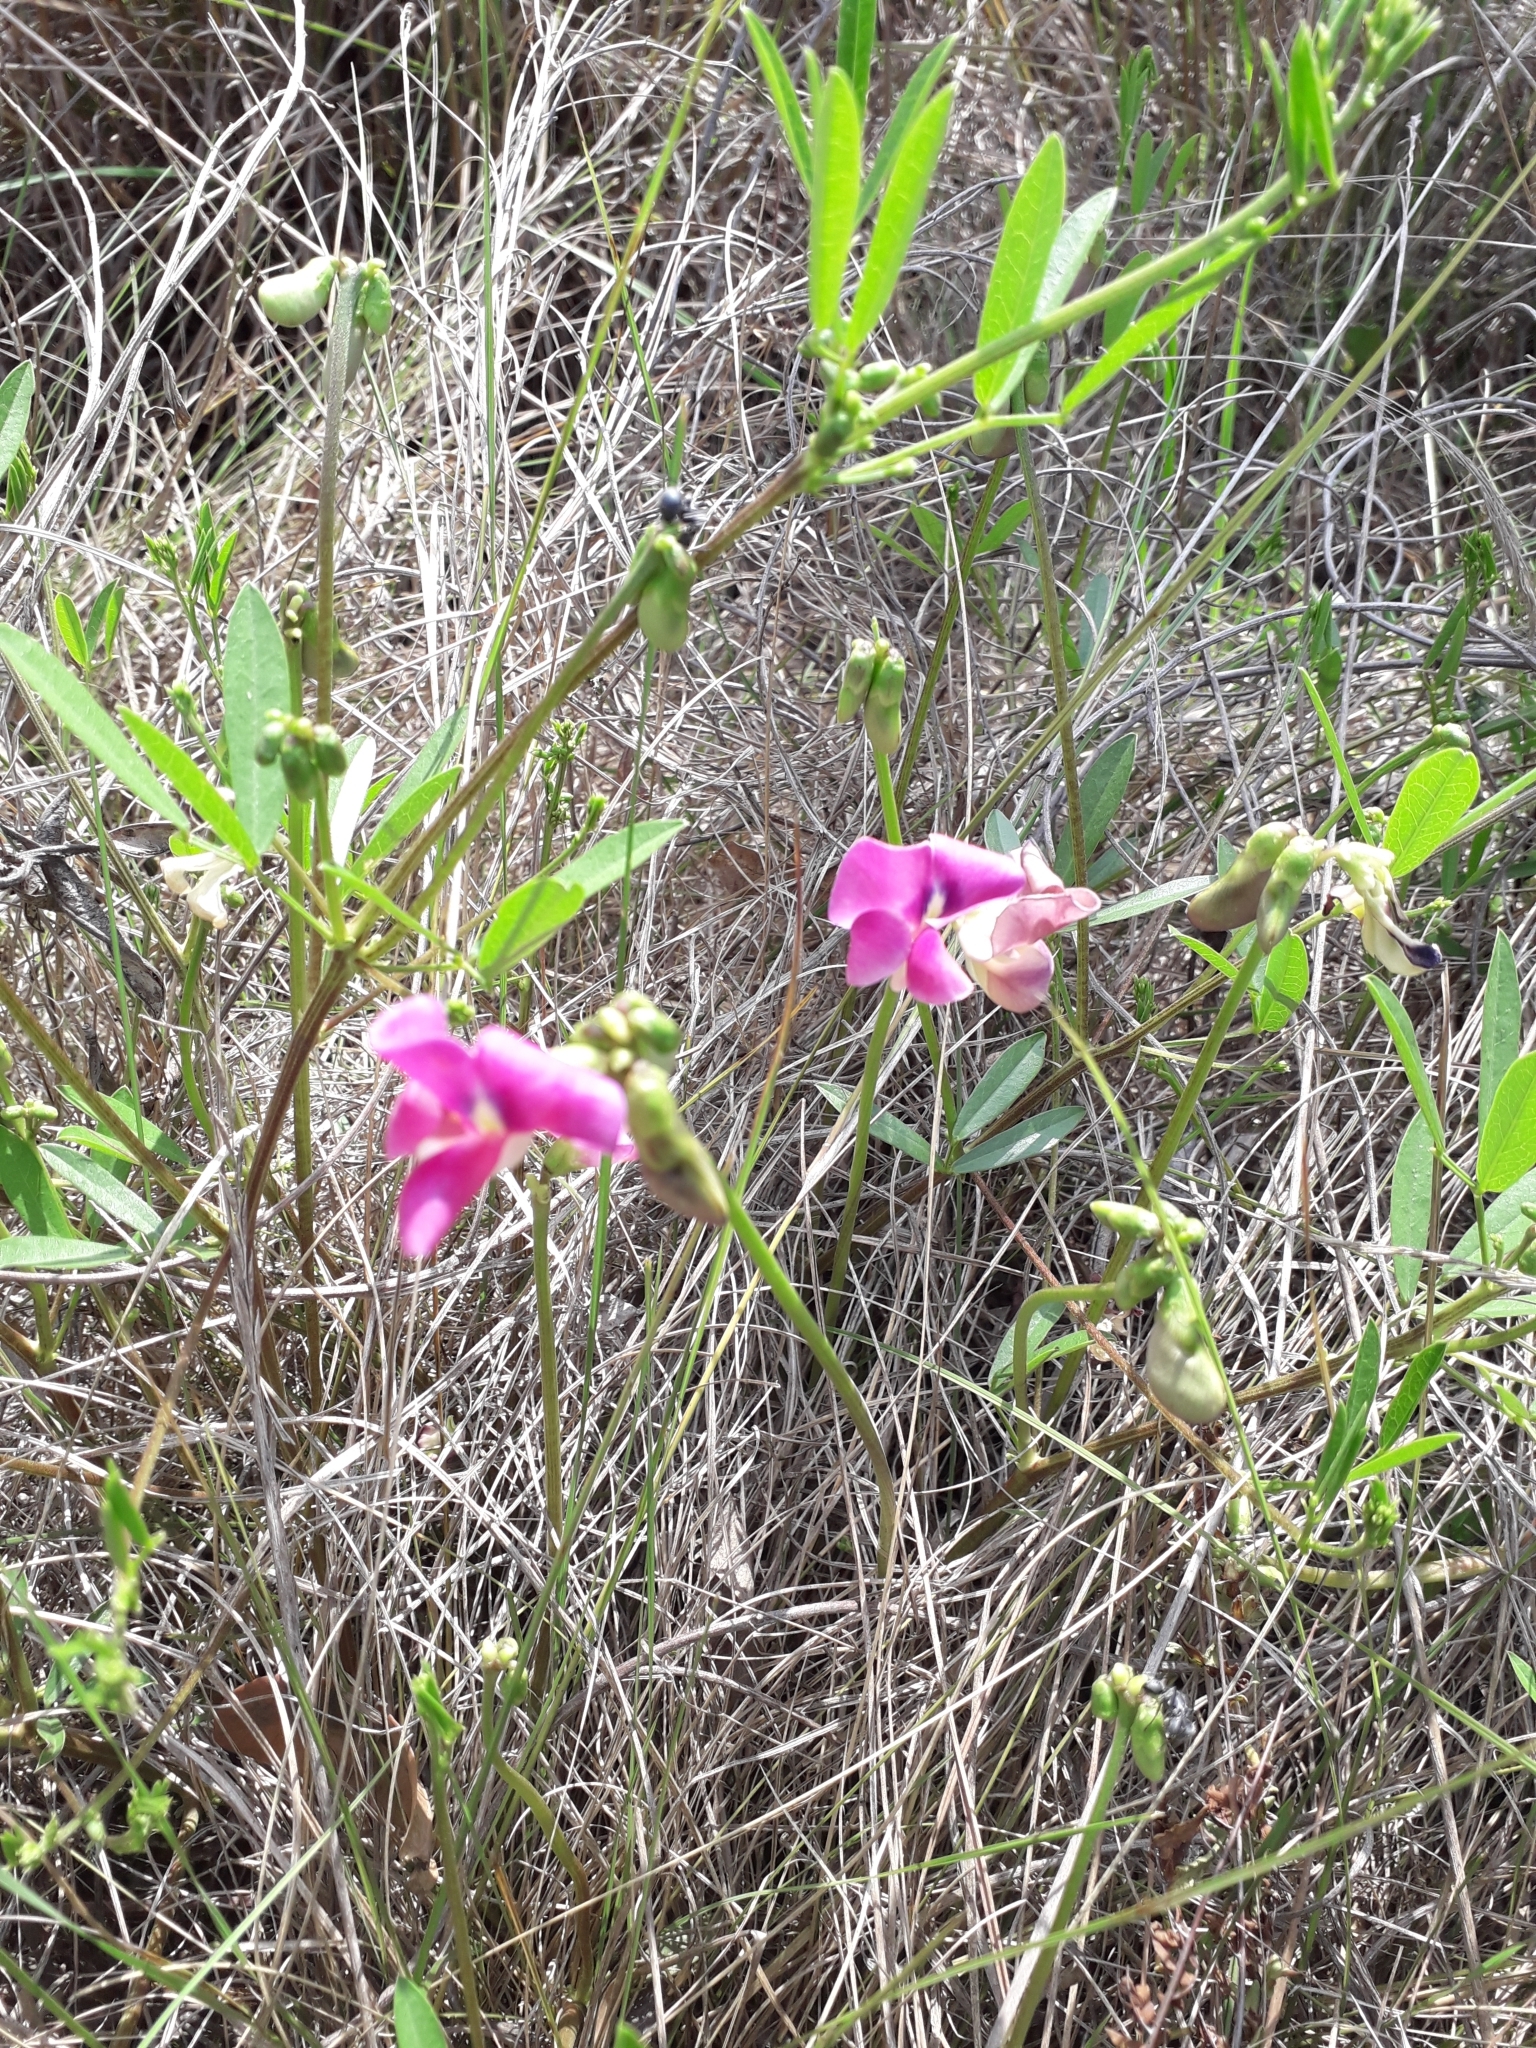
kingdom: Plantae
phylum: Tracheophyta
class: Magnoliopsida
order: Fabales
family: Fabaceae
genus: Sphenostylis
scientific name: Sphenostylis angustifolia
